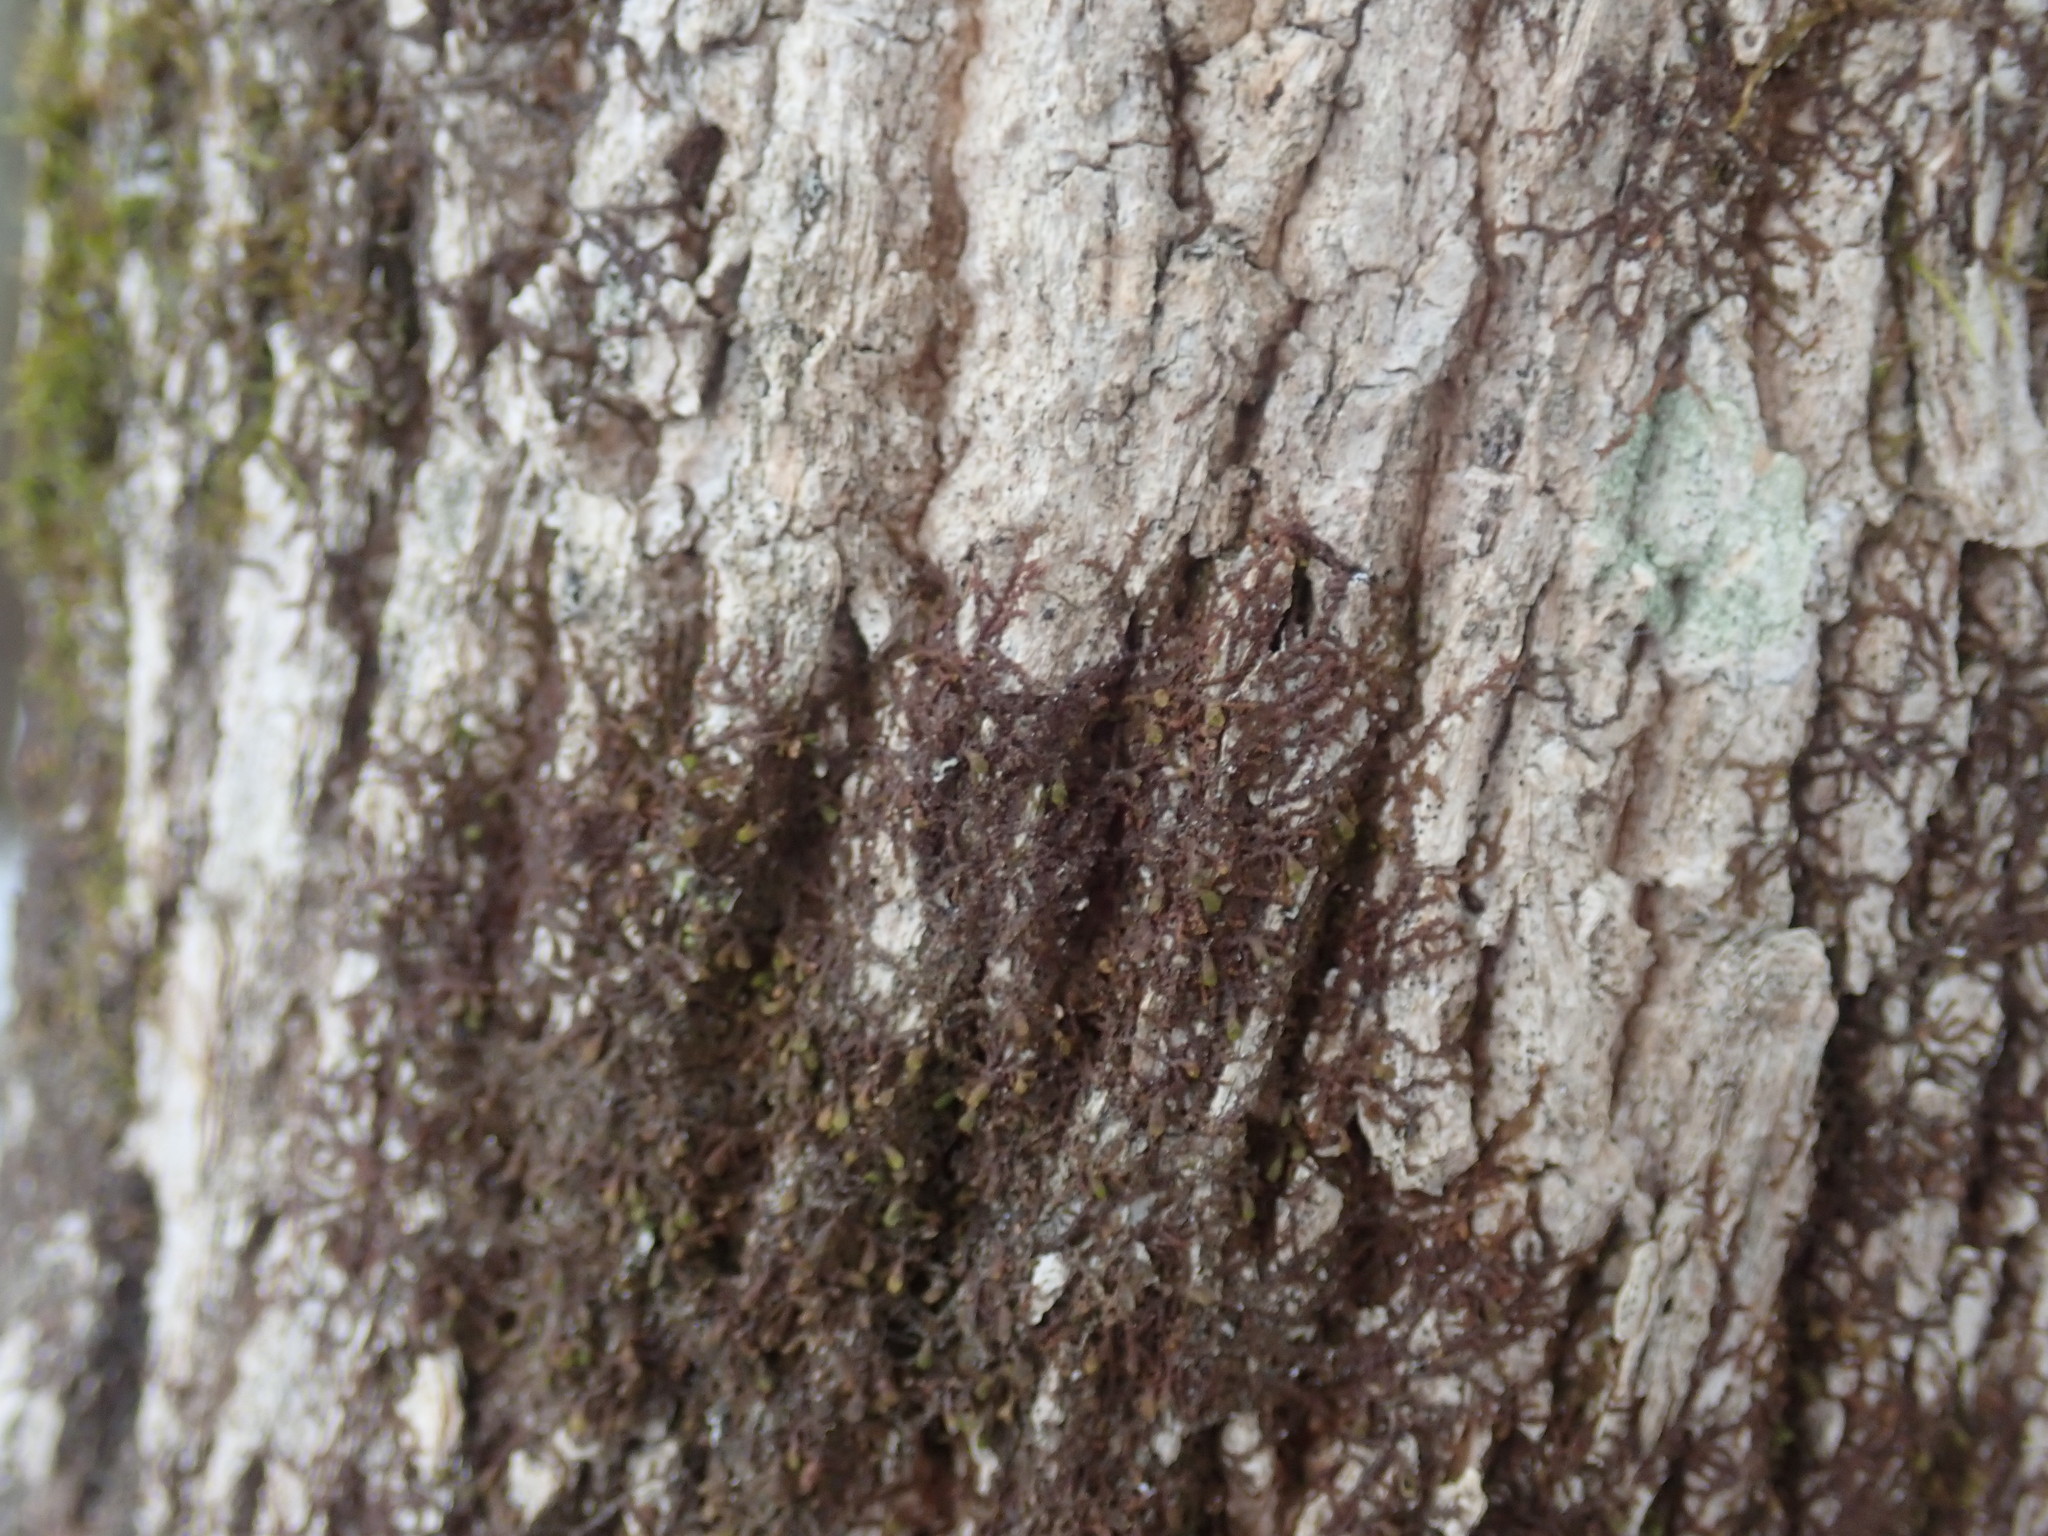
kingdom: Plantae
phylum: Marchantiophyta
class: Jungermanniopsida
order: Porellales
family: Frullaniaceae
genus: Frullania
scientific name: Frullania
